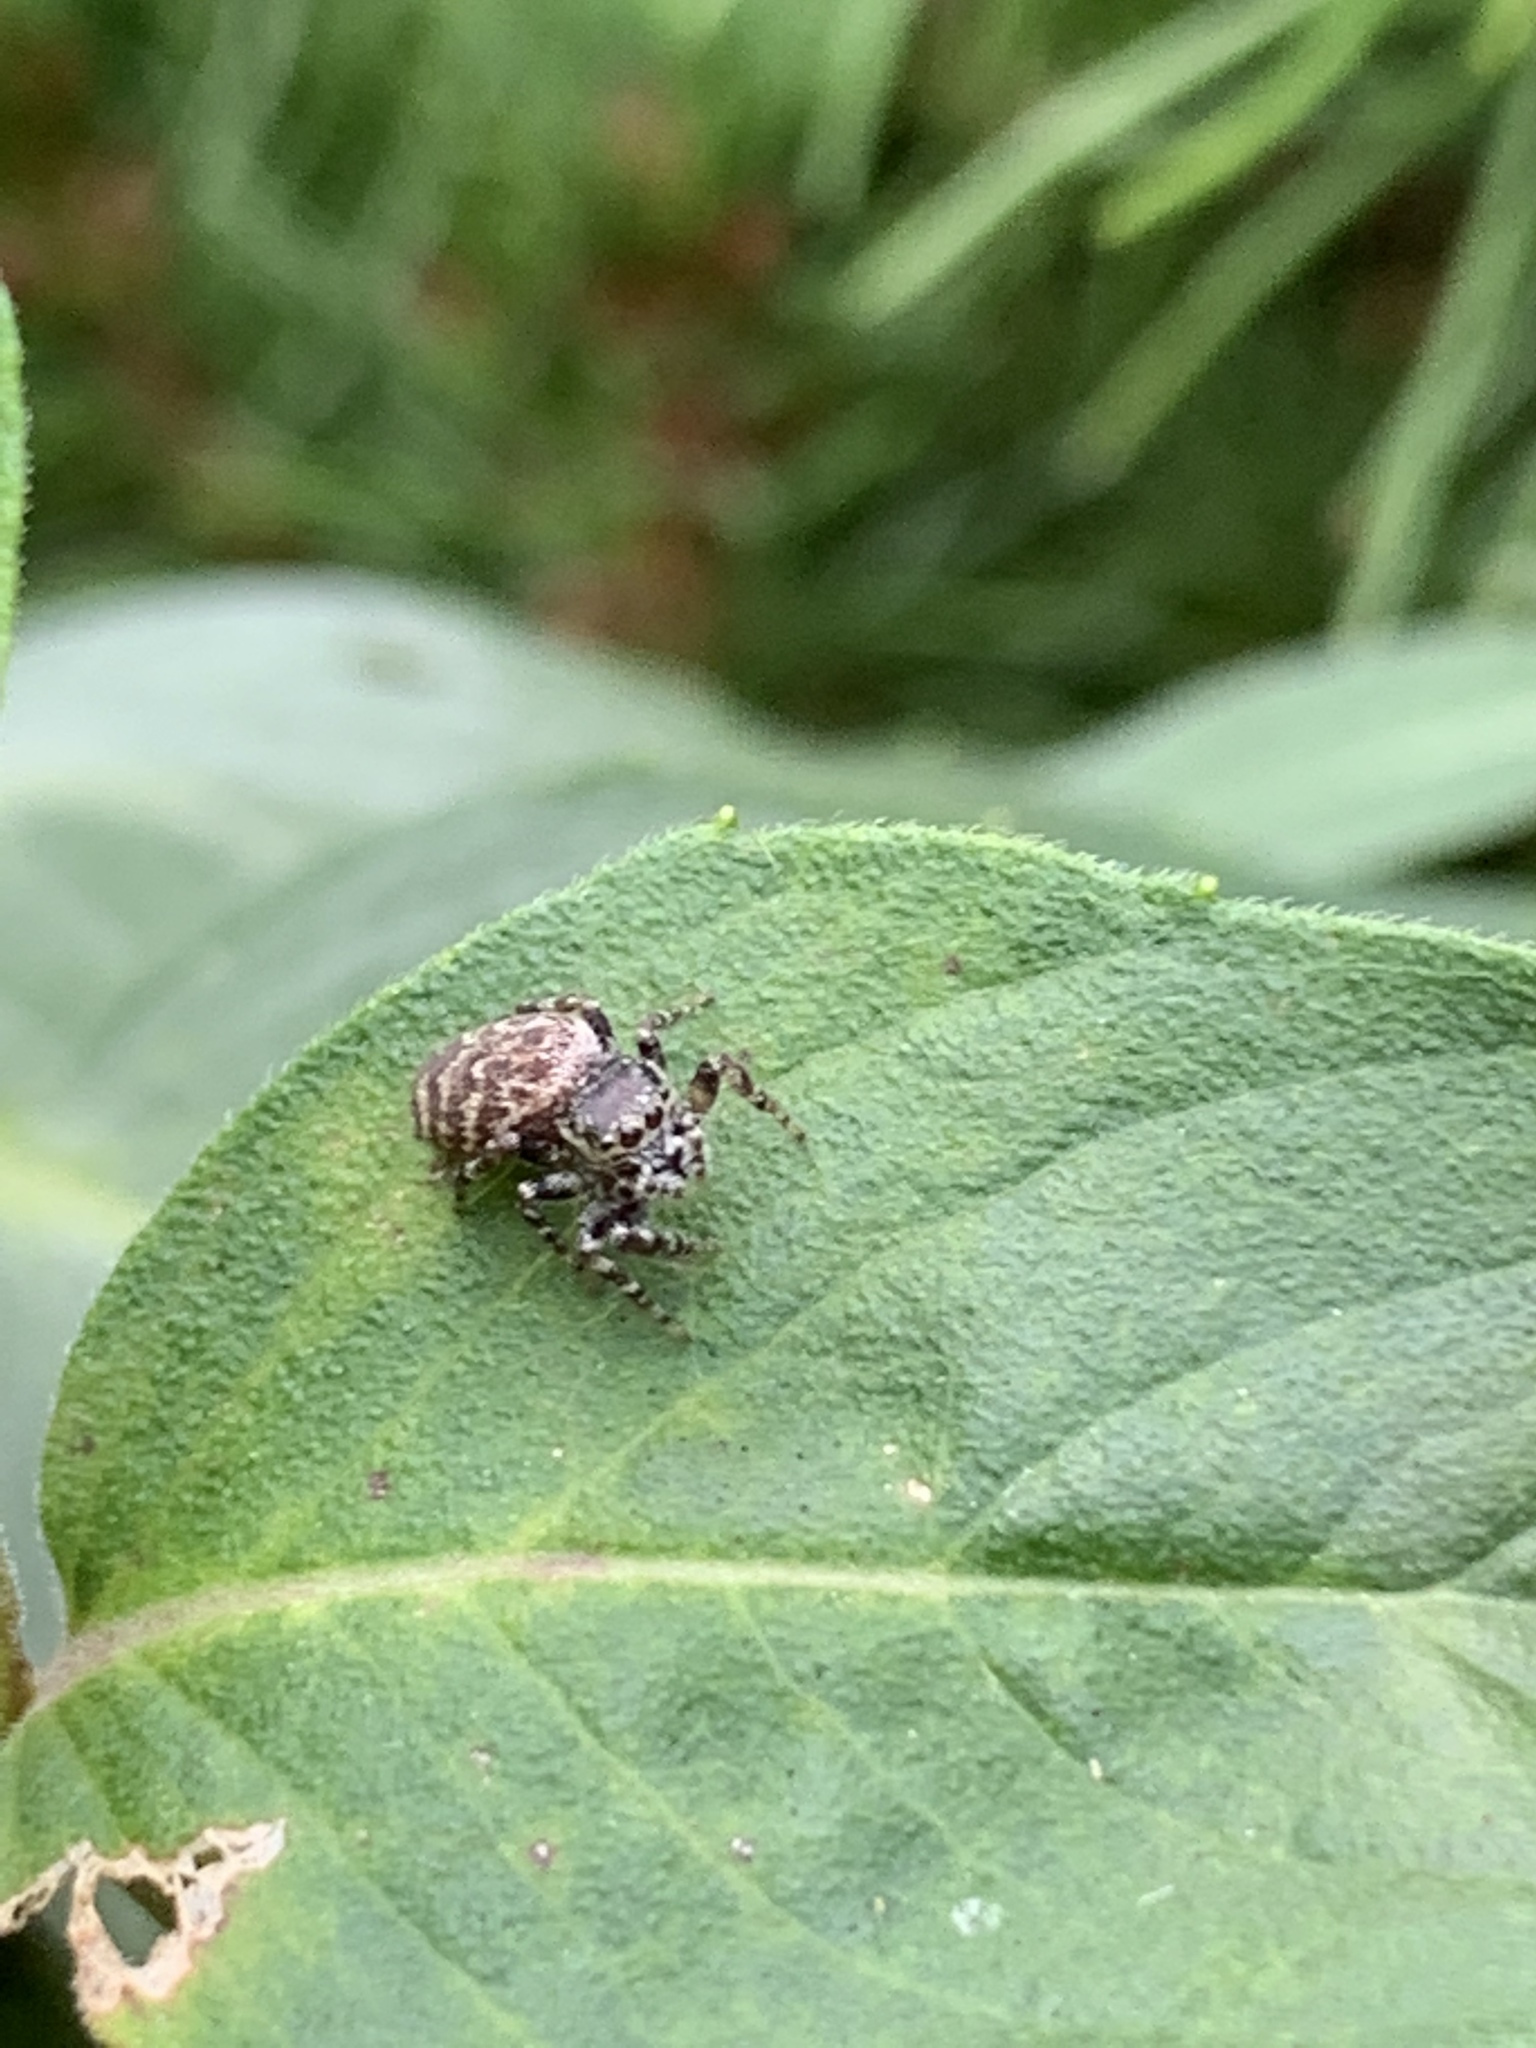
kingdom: Animalia
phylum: Arthropoda
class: Arachnida
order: Araneae
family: Salticidae
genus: Pelegrina
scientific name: Pelegrina galathea
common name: Jumping spiders
